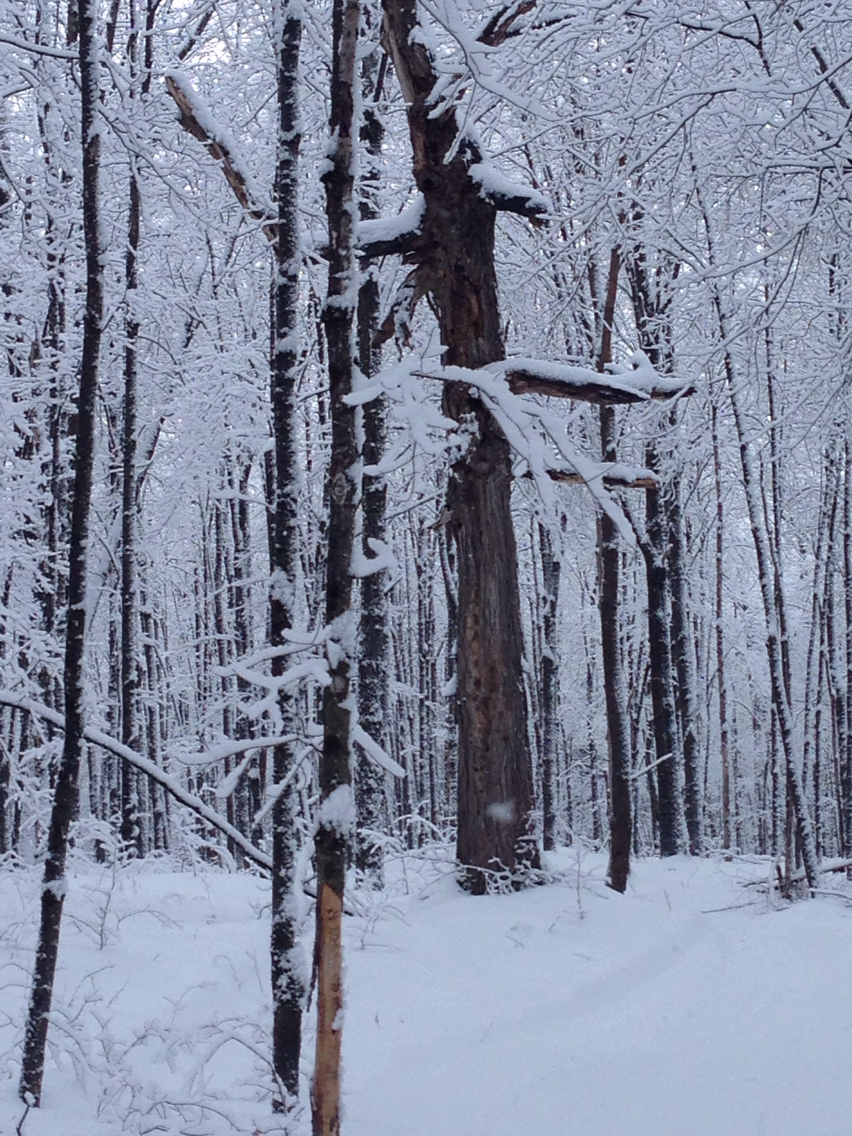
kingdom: Plantae
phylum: Tracheophyta
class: Magnoliopsida
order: Sapindales
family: Sapindaceae
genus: Acer
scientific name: Acer saccharum
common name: Sugar maple
